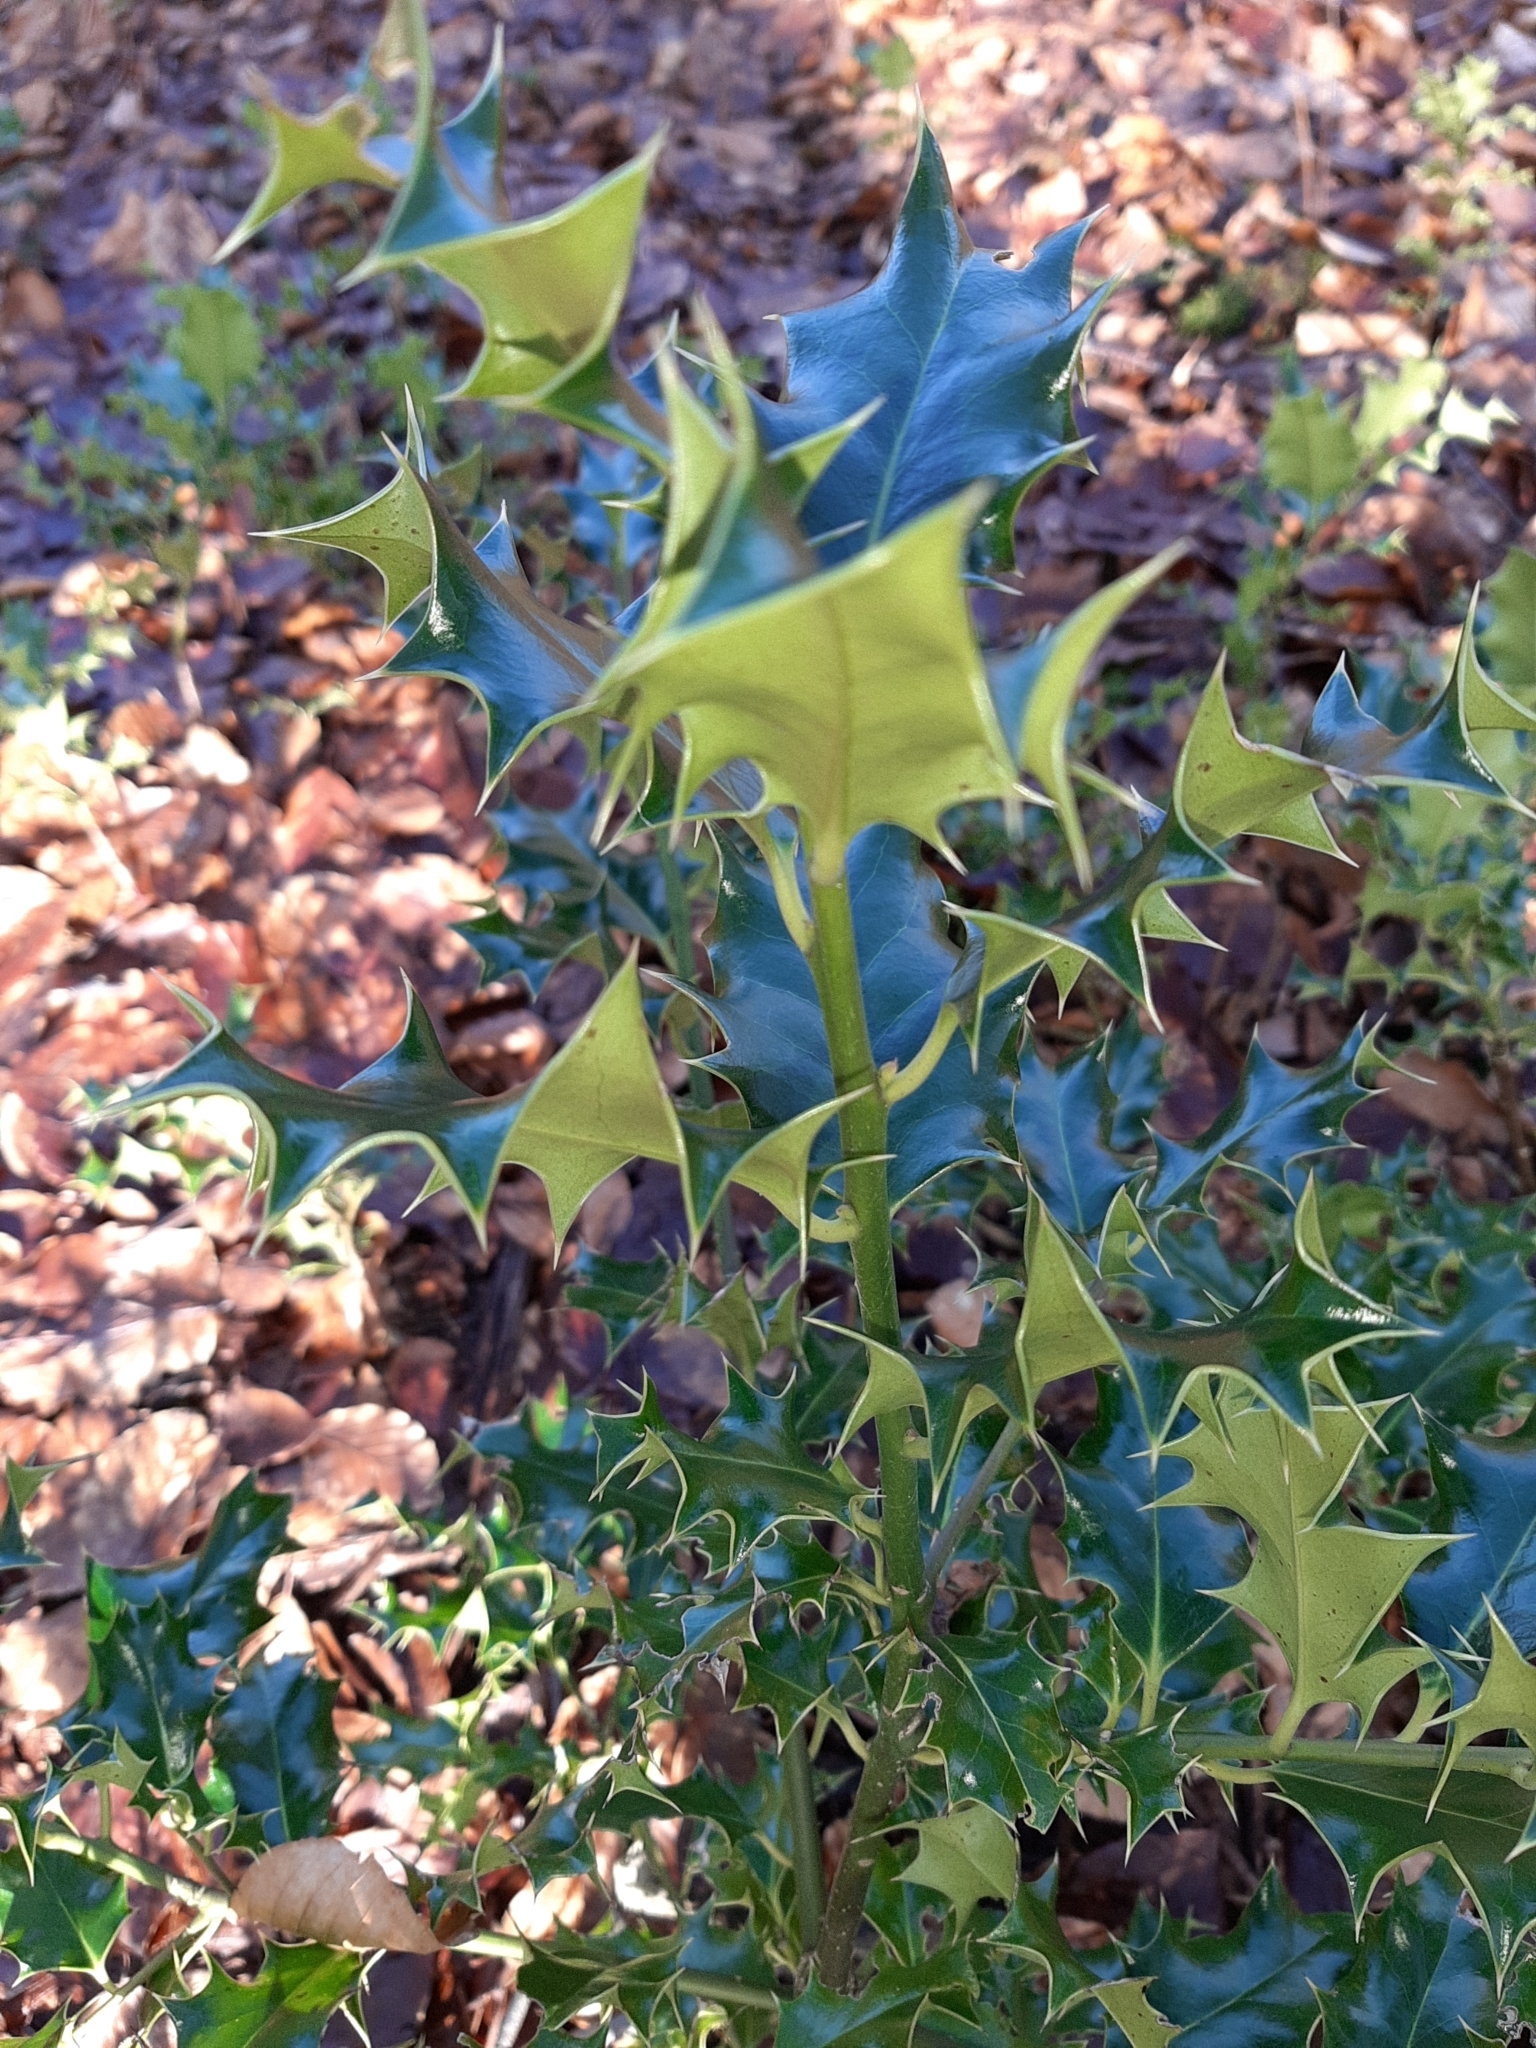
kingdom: Plantae
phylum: Tracheophyta
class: Magnoliopsida
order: Aquifoliales
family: Aquifoliaceae
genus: Ilex
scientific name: Ilex aquifolium
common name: English holly
